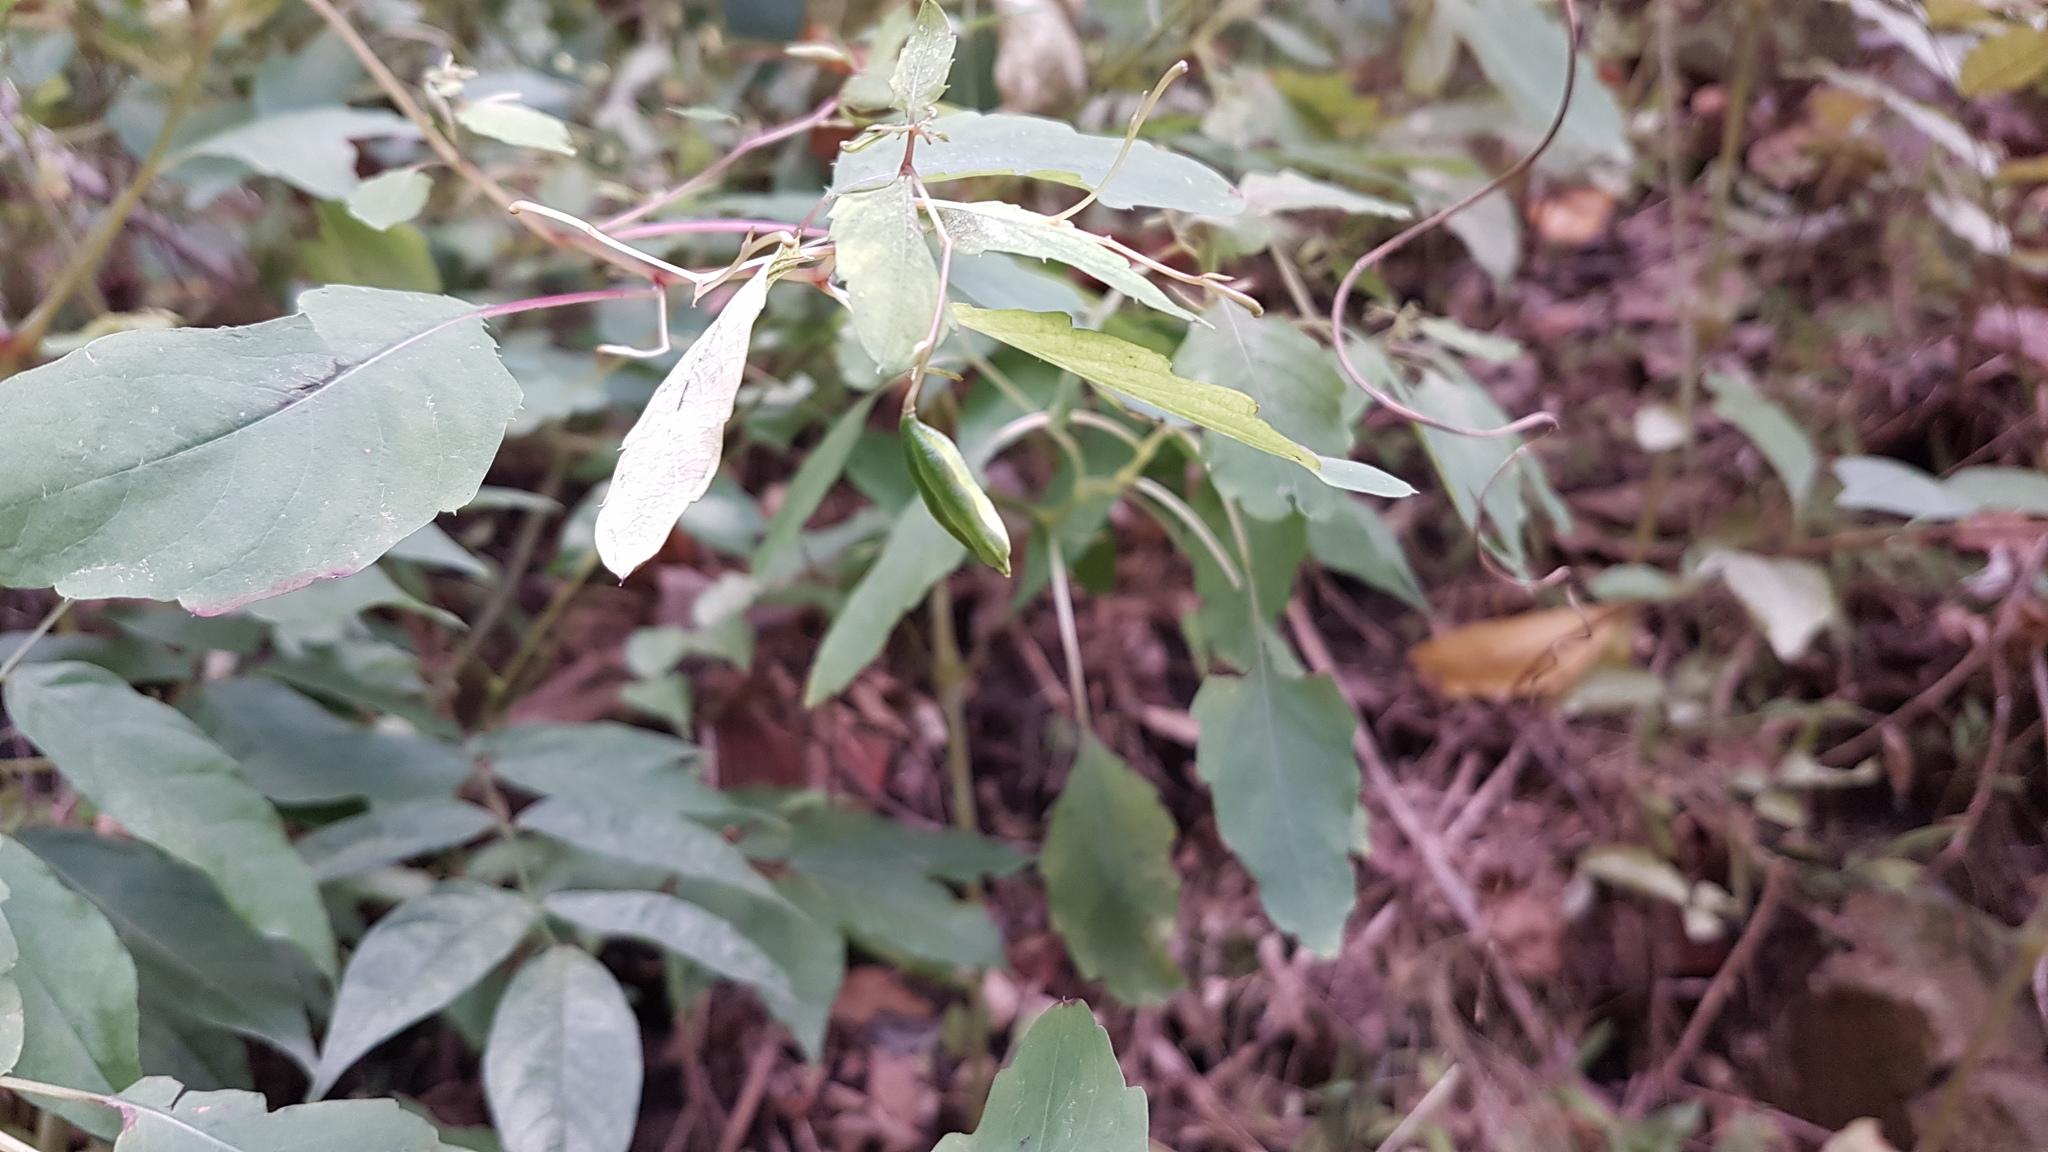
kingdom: Plantae
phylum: Tracheophyta
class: Magnoliopsida
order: Ericales
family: Balsaminaceae
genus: Impatiens
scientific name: Impatiens capensis
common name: Orange balsam
